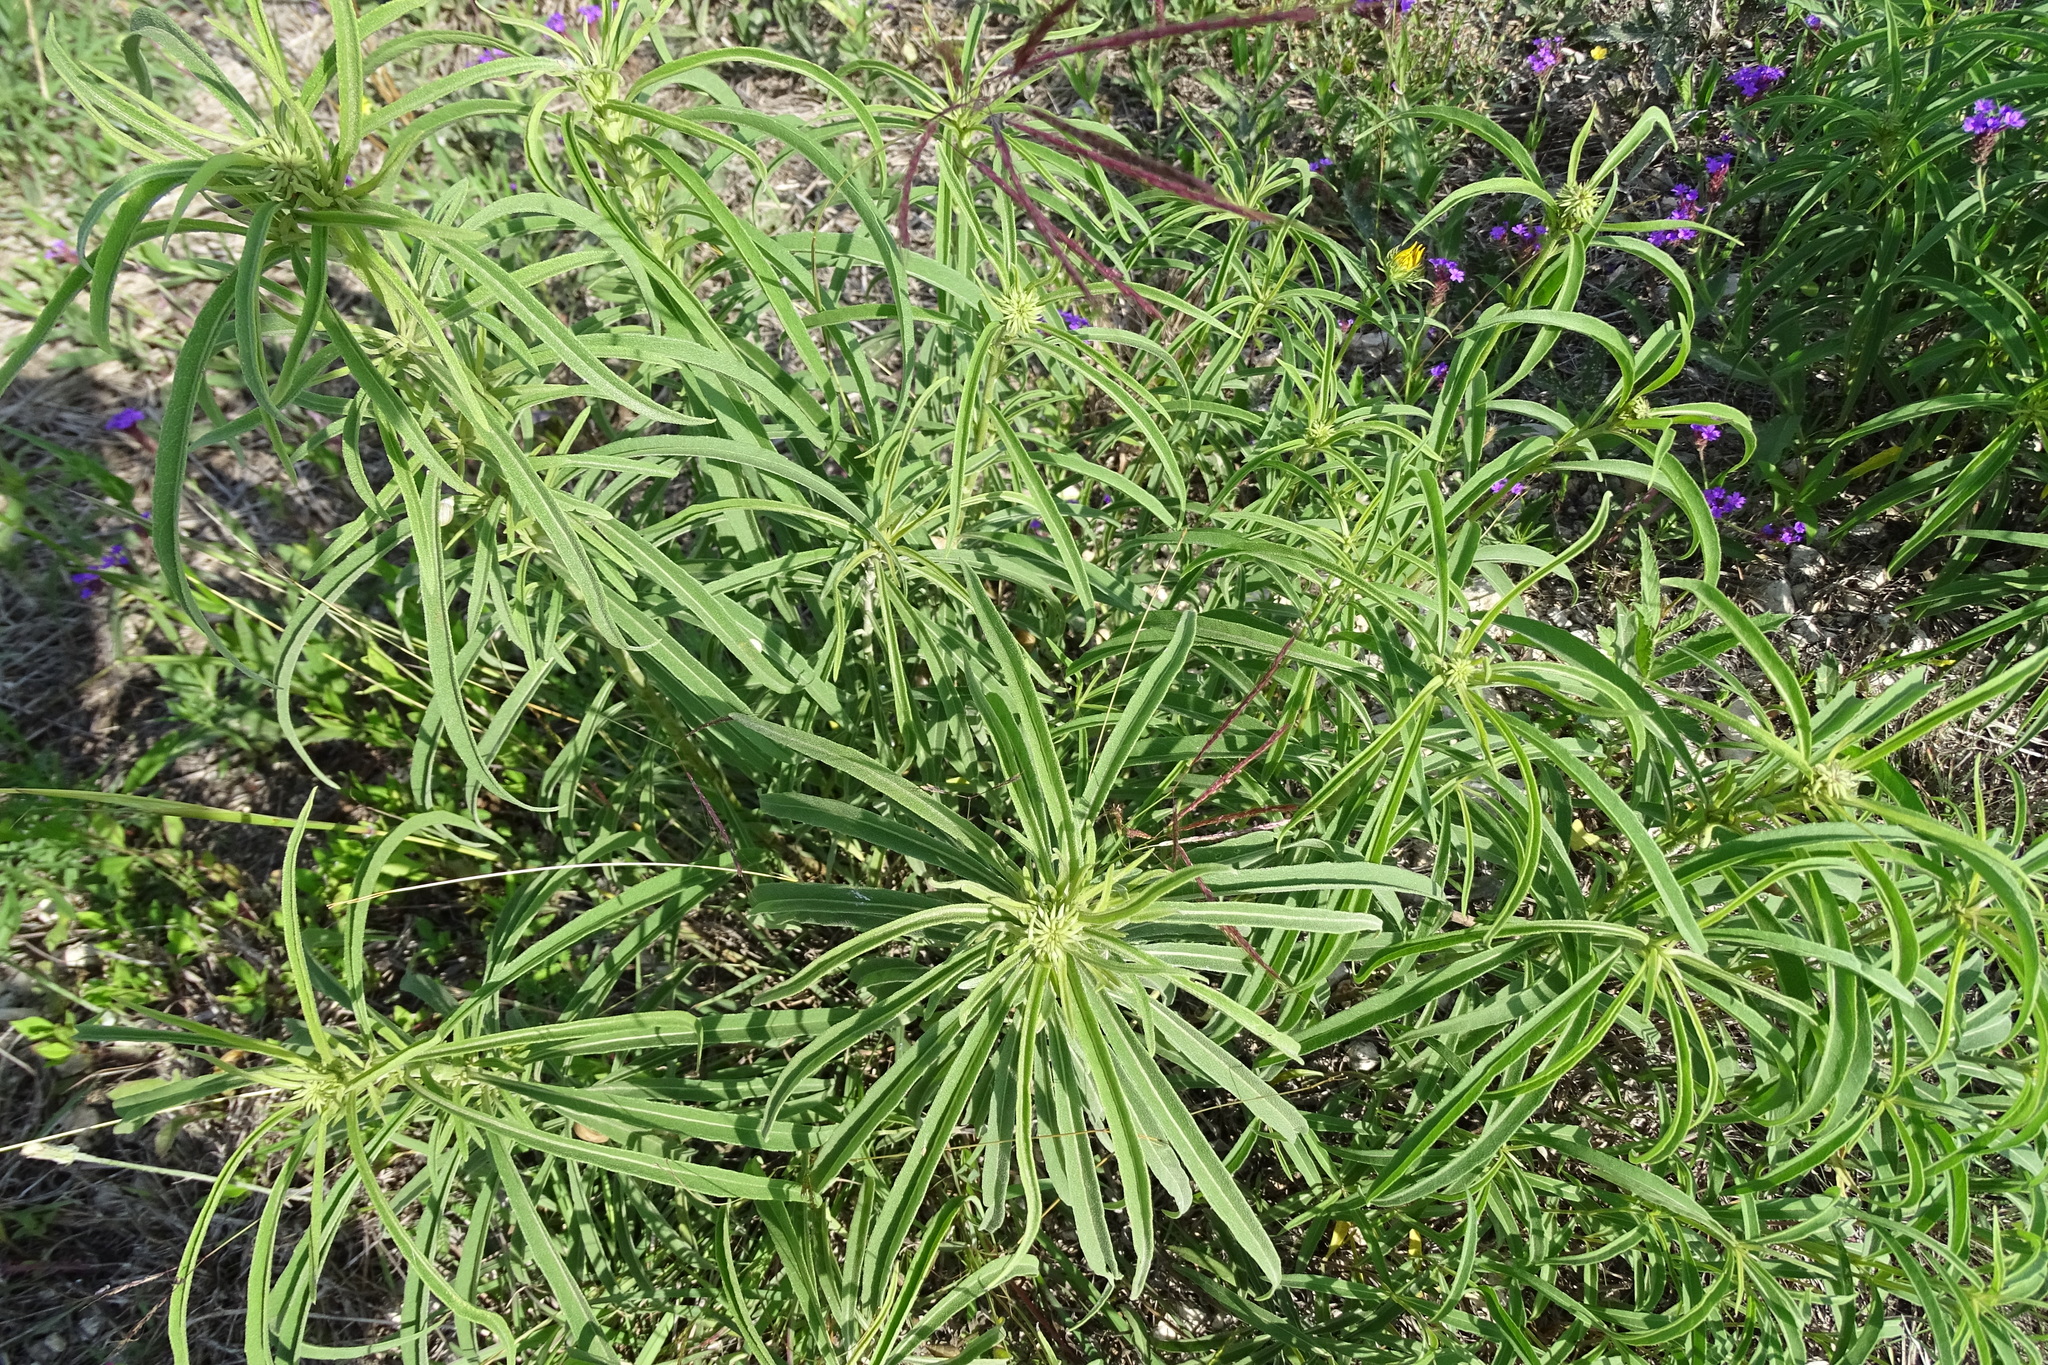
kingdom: Plantae
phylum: Tracheophyta
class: Magnoliopsida
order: Asterales
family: Asteraceae
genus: Helianthus
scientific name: Helianthus maximiliani
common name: Maximilian's sunflower
